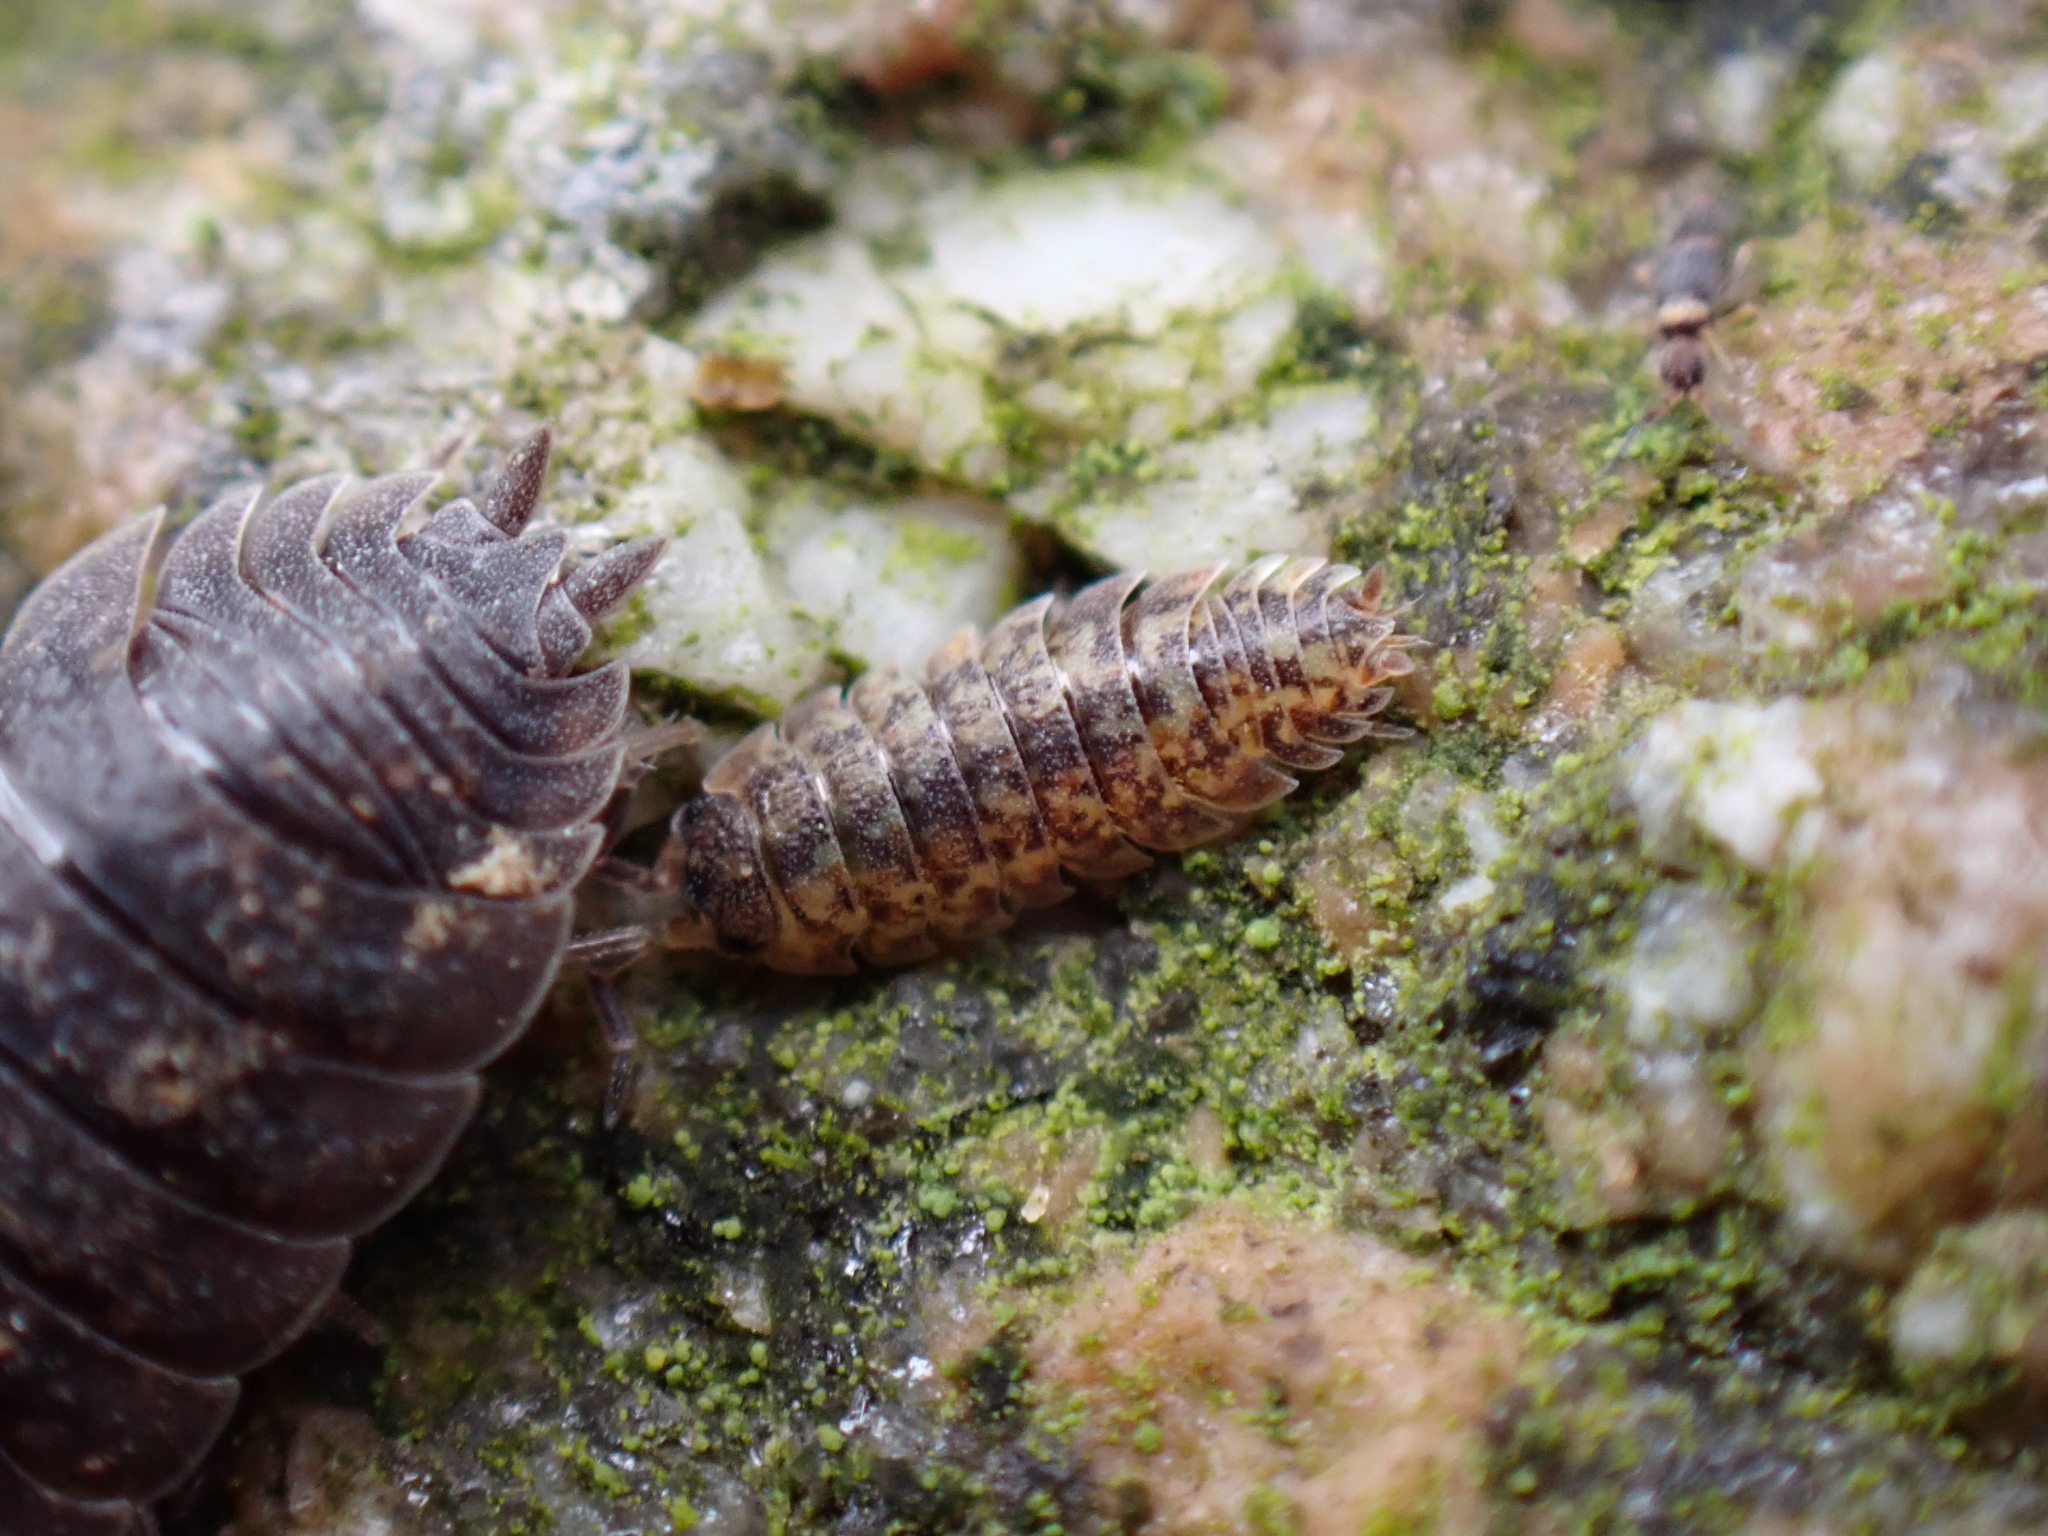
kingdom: Animalia
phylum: Arthropoda
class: Malacostraca
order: Isopoda
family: Porcellionidae
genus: Porcellio
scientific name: Porcellio scaber
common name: Common rough woodlouse
